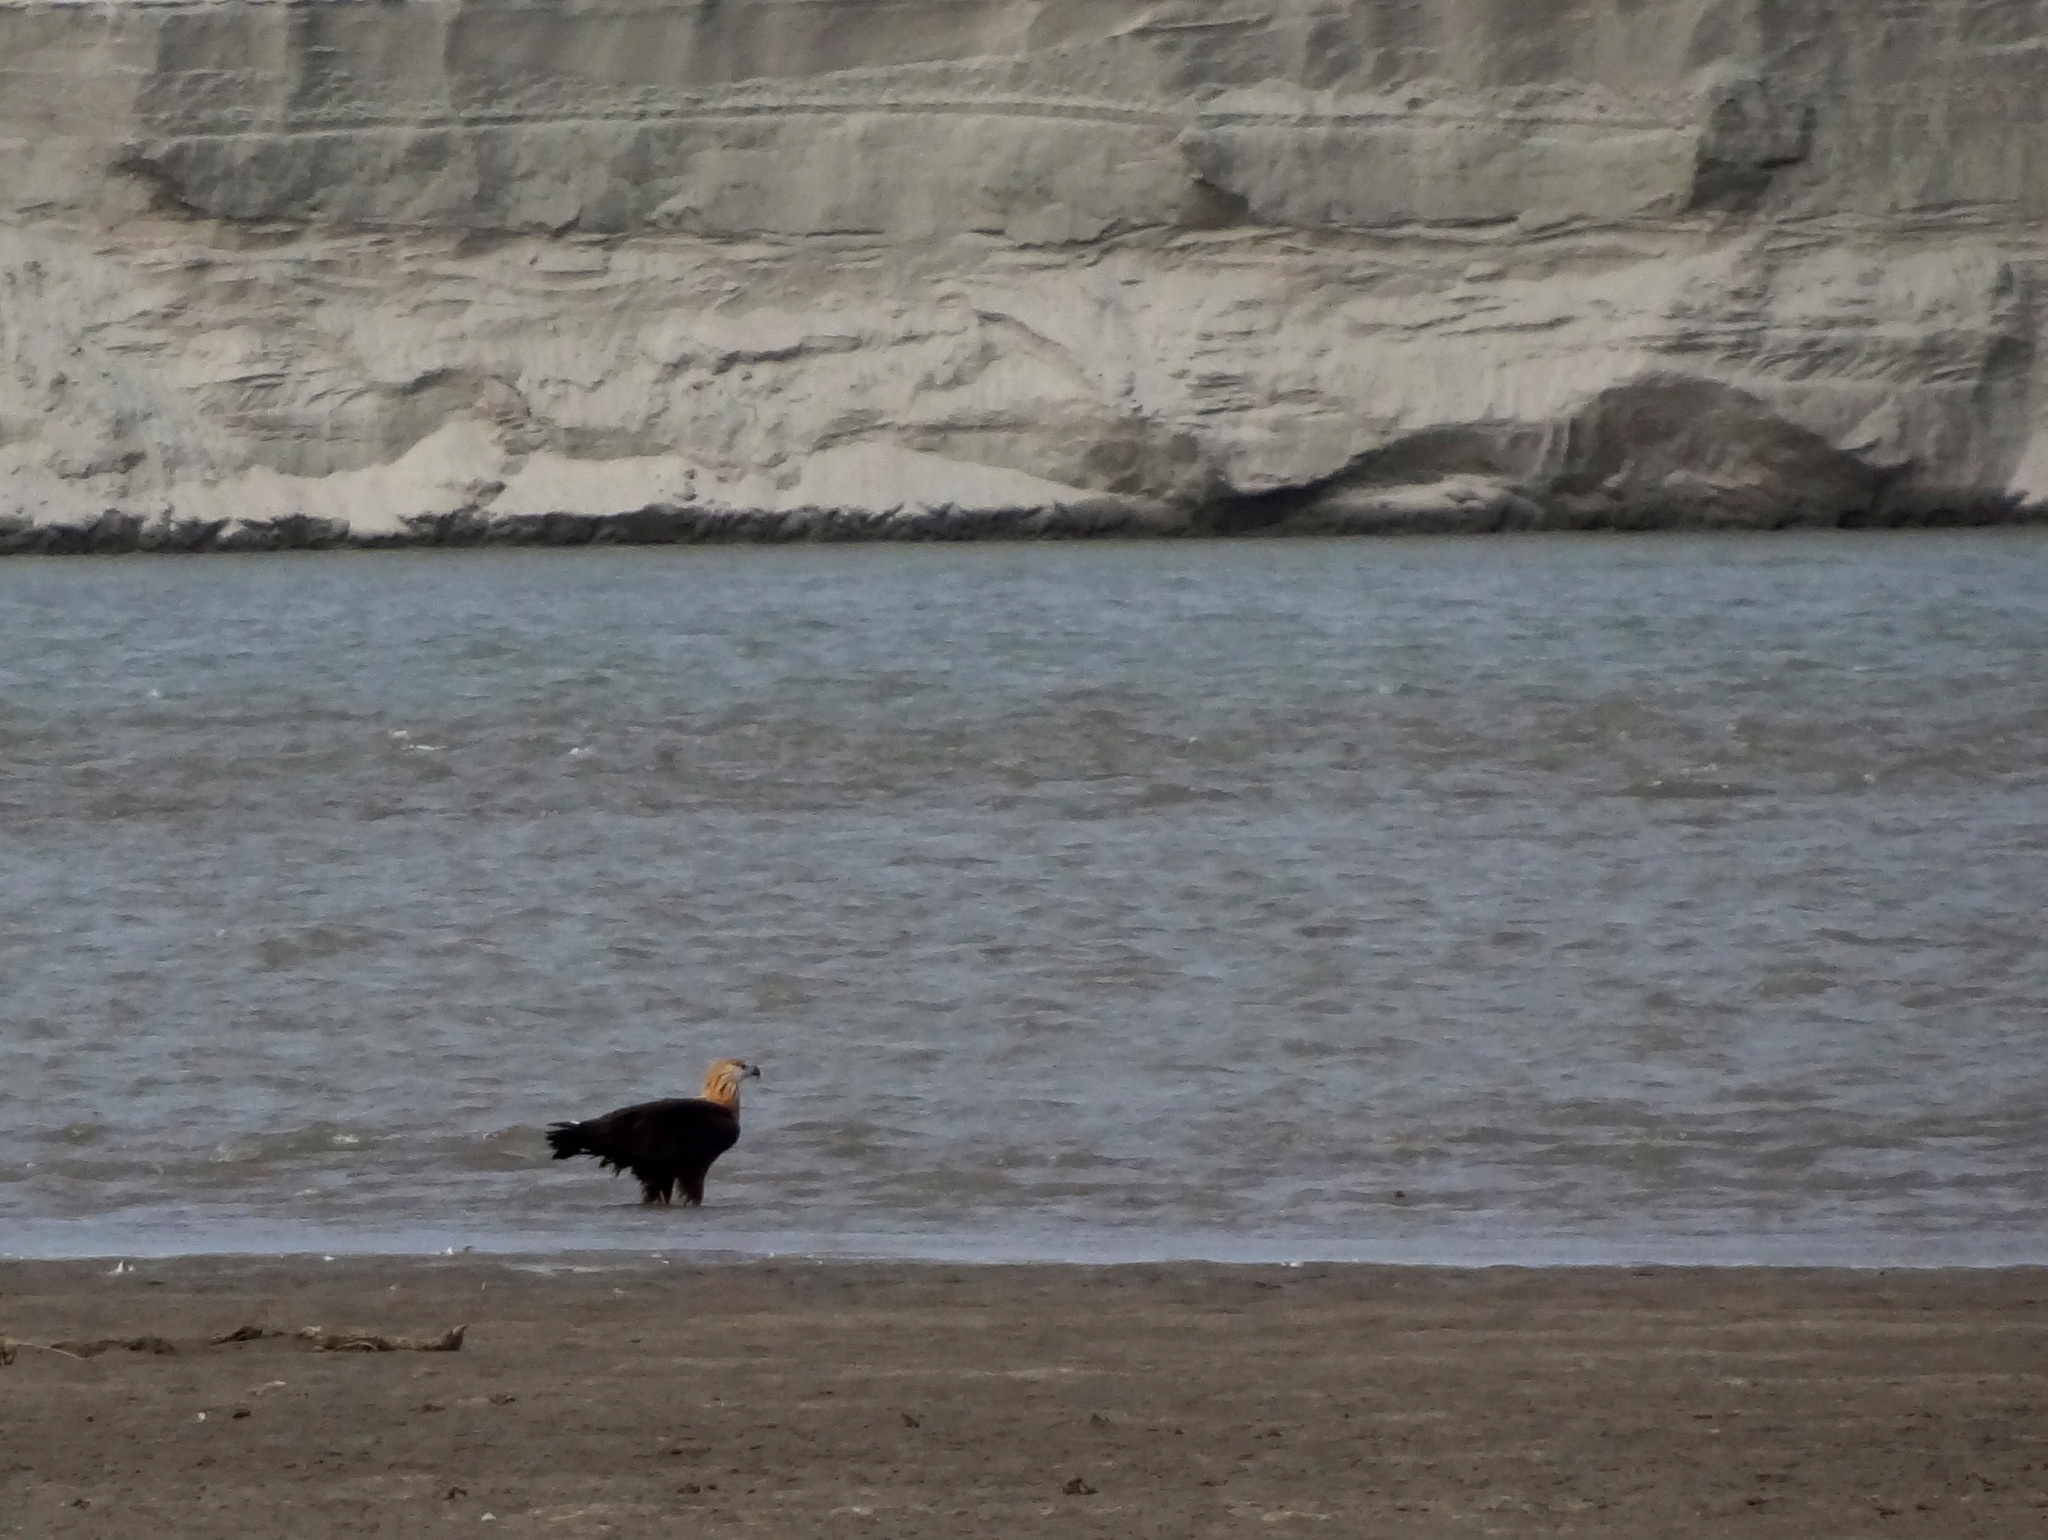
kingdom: Animalia
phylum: Chordata
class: Aves
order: Accipitriformes
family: Accipitridae
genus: Haliaeetus
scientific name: Haliaeetus leucoryphus
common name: Pallas's fish eagle
